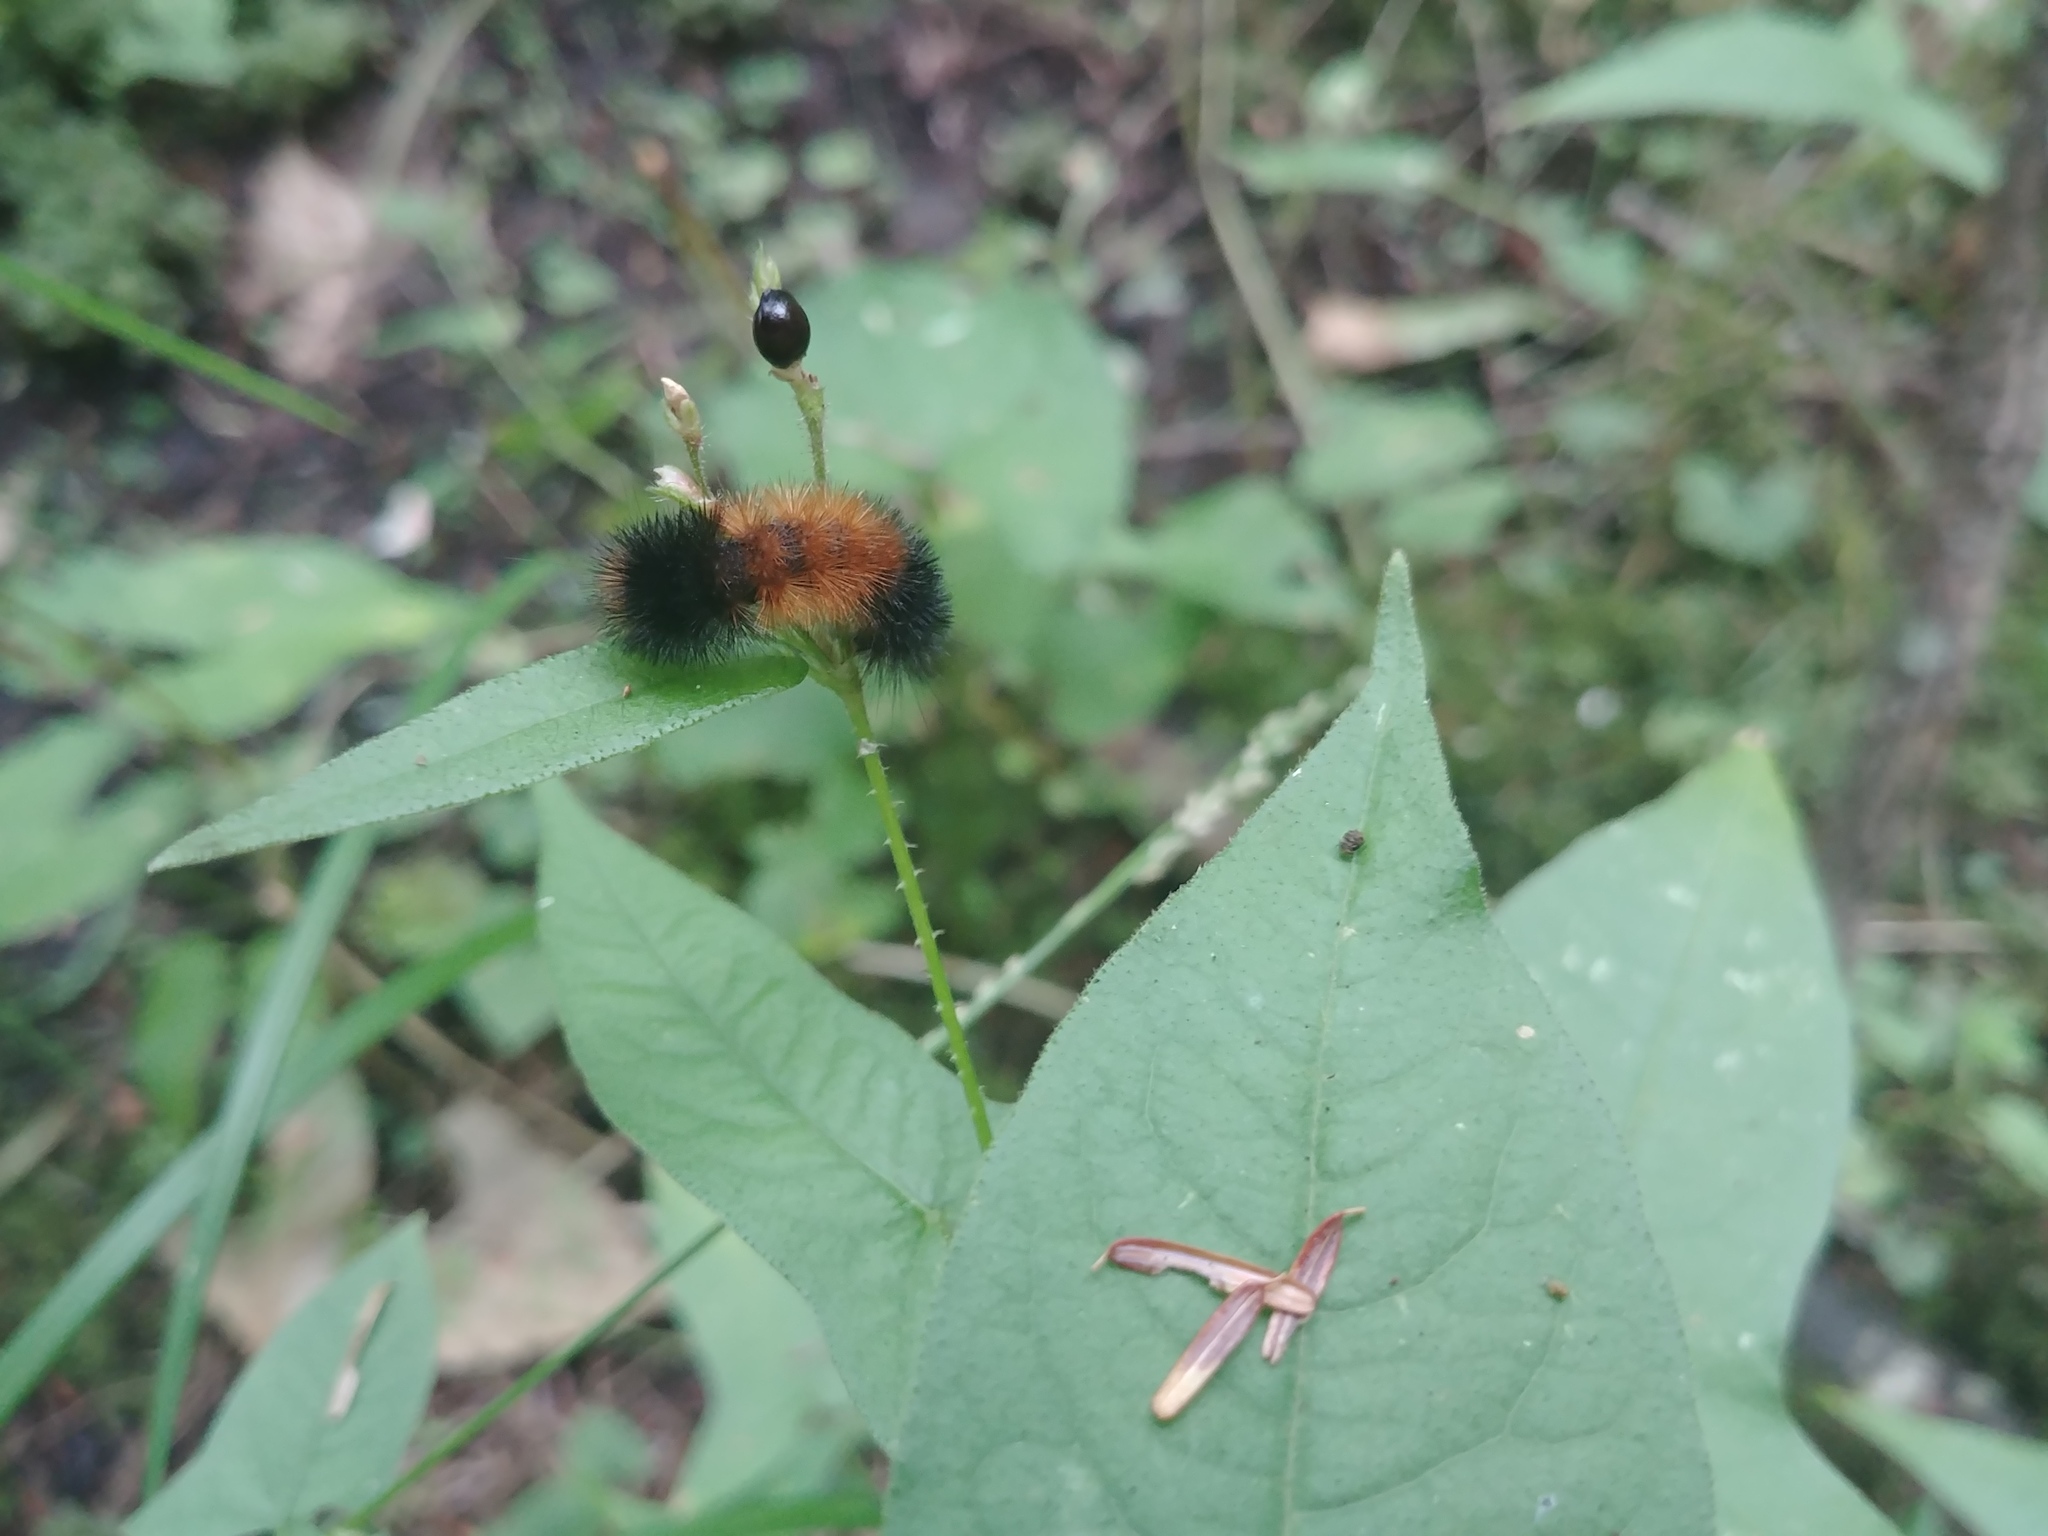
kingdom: Animalia
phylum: Arthropoda
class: Insecta
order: Lepidoptera
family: Erebidae
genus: Pyrrharctia
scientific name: Pyrrharctia isabella
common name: Isabella tiger moth
